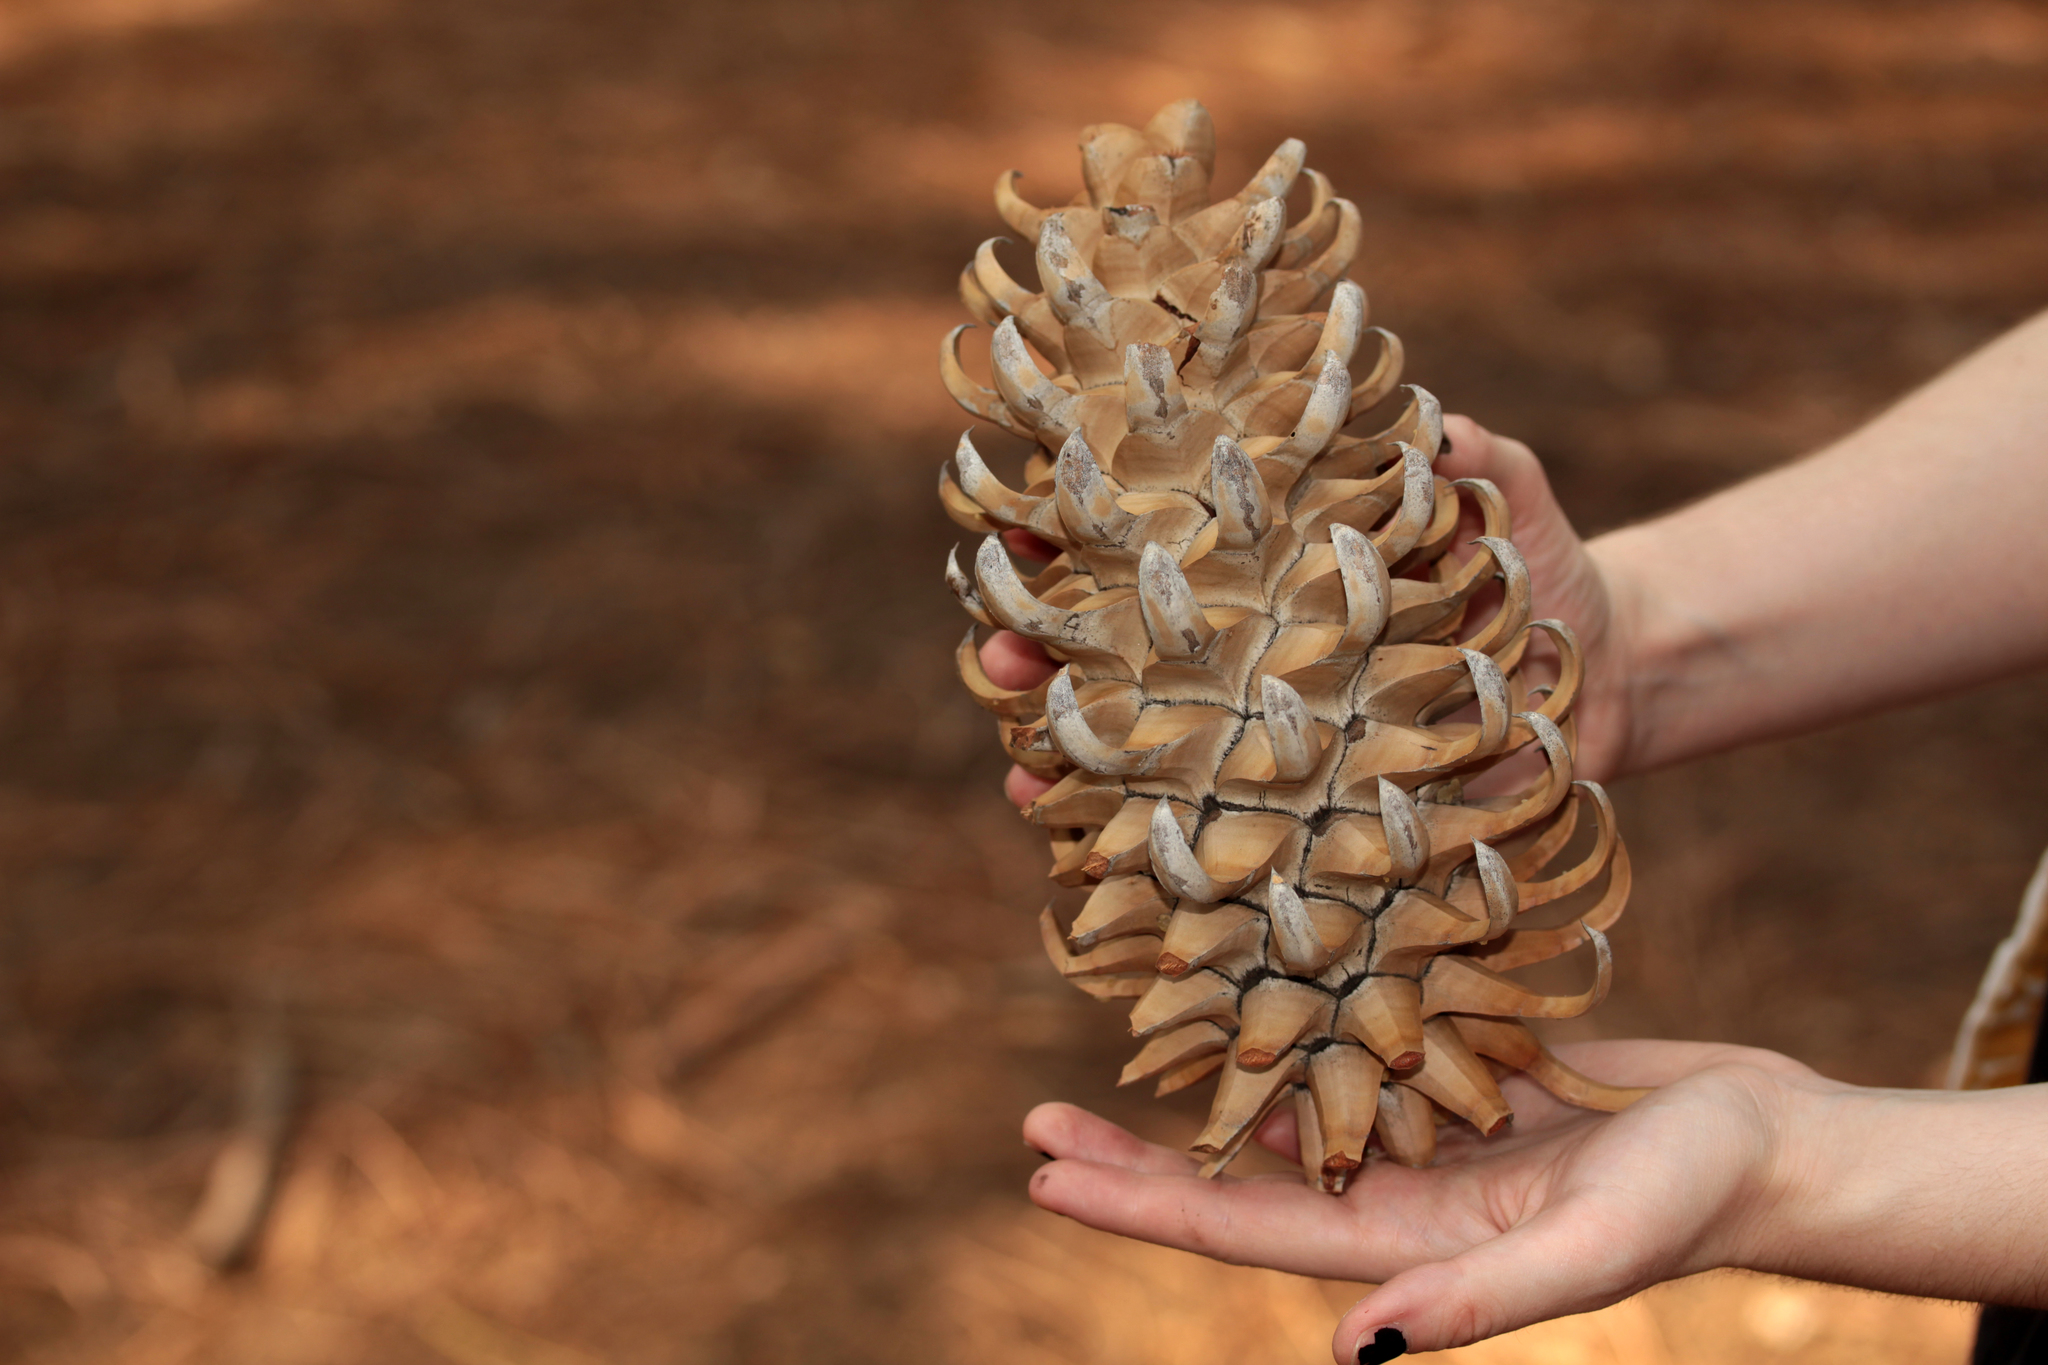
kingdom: Plantae
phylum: Tracheophyta
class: Pinopsida
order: Pinales
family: Pinaceae
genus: Pinus
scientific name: Pinus coulteri
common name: Coulter pine
